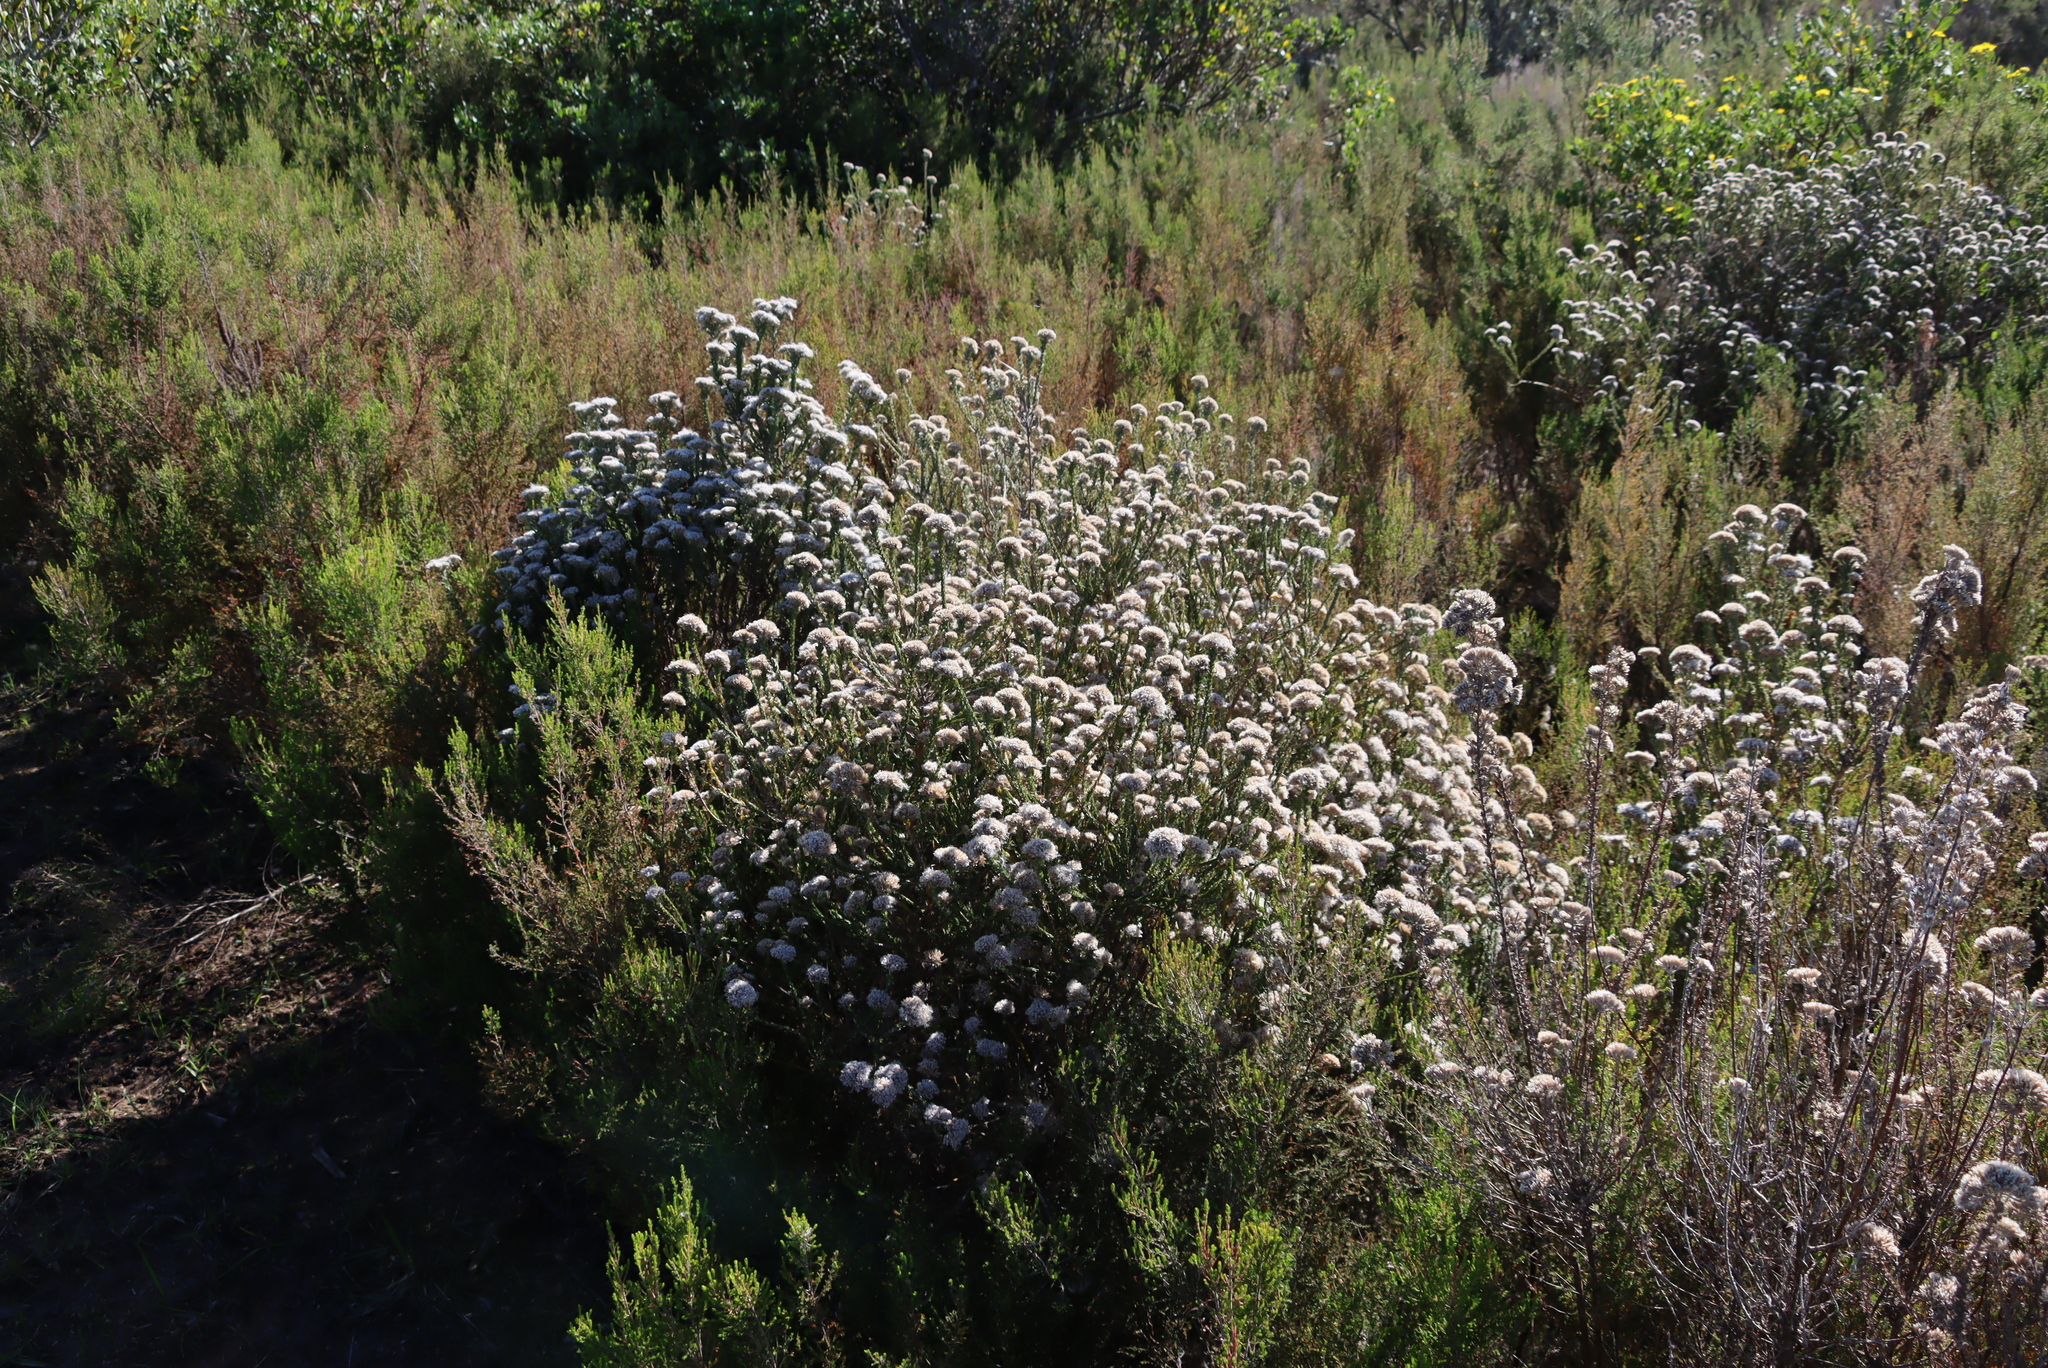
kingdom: Plantae
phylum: Tracheophyta
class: Magnoliopsida
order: Asterales
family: Asteraceae
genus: Metalasia
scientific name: Metalasia pungens
